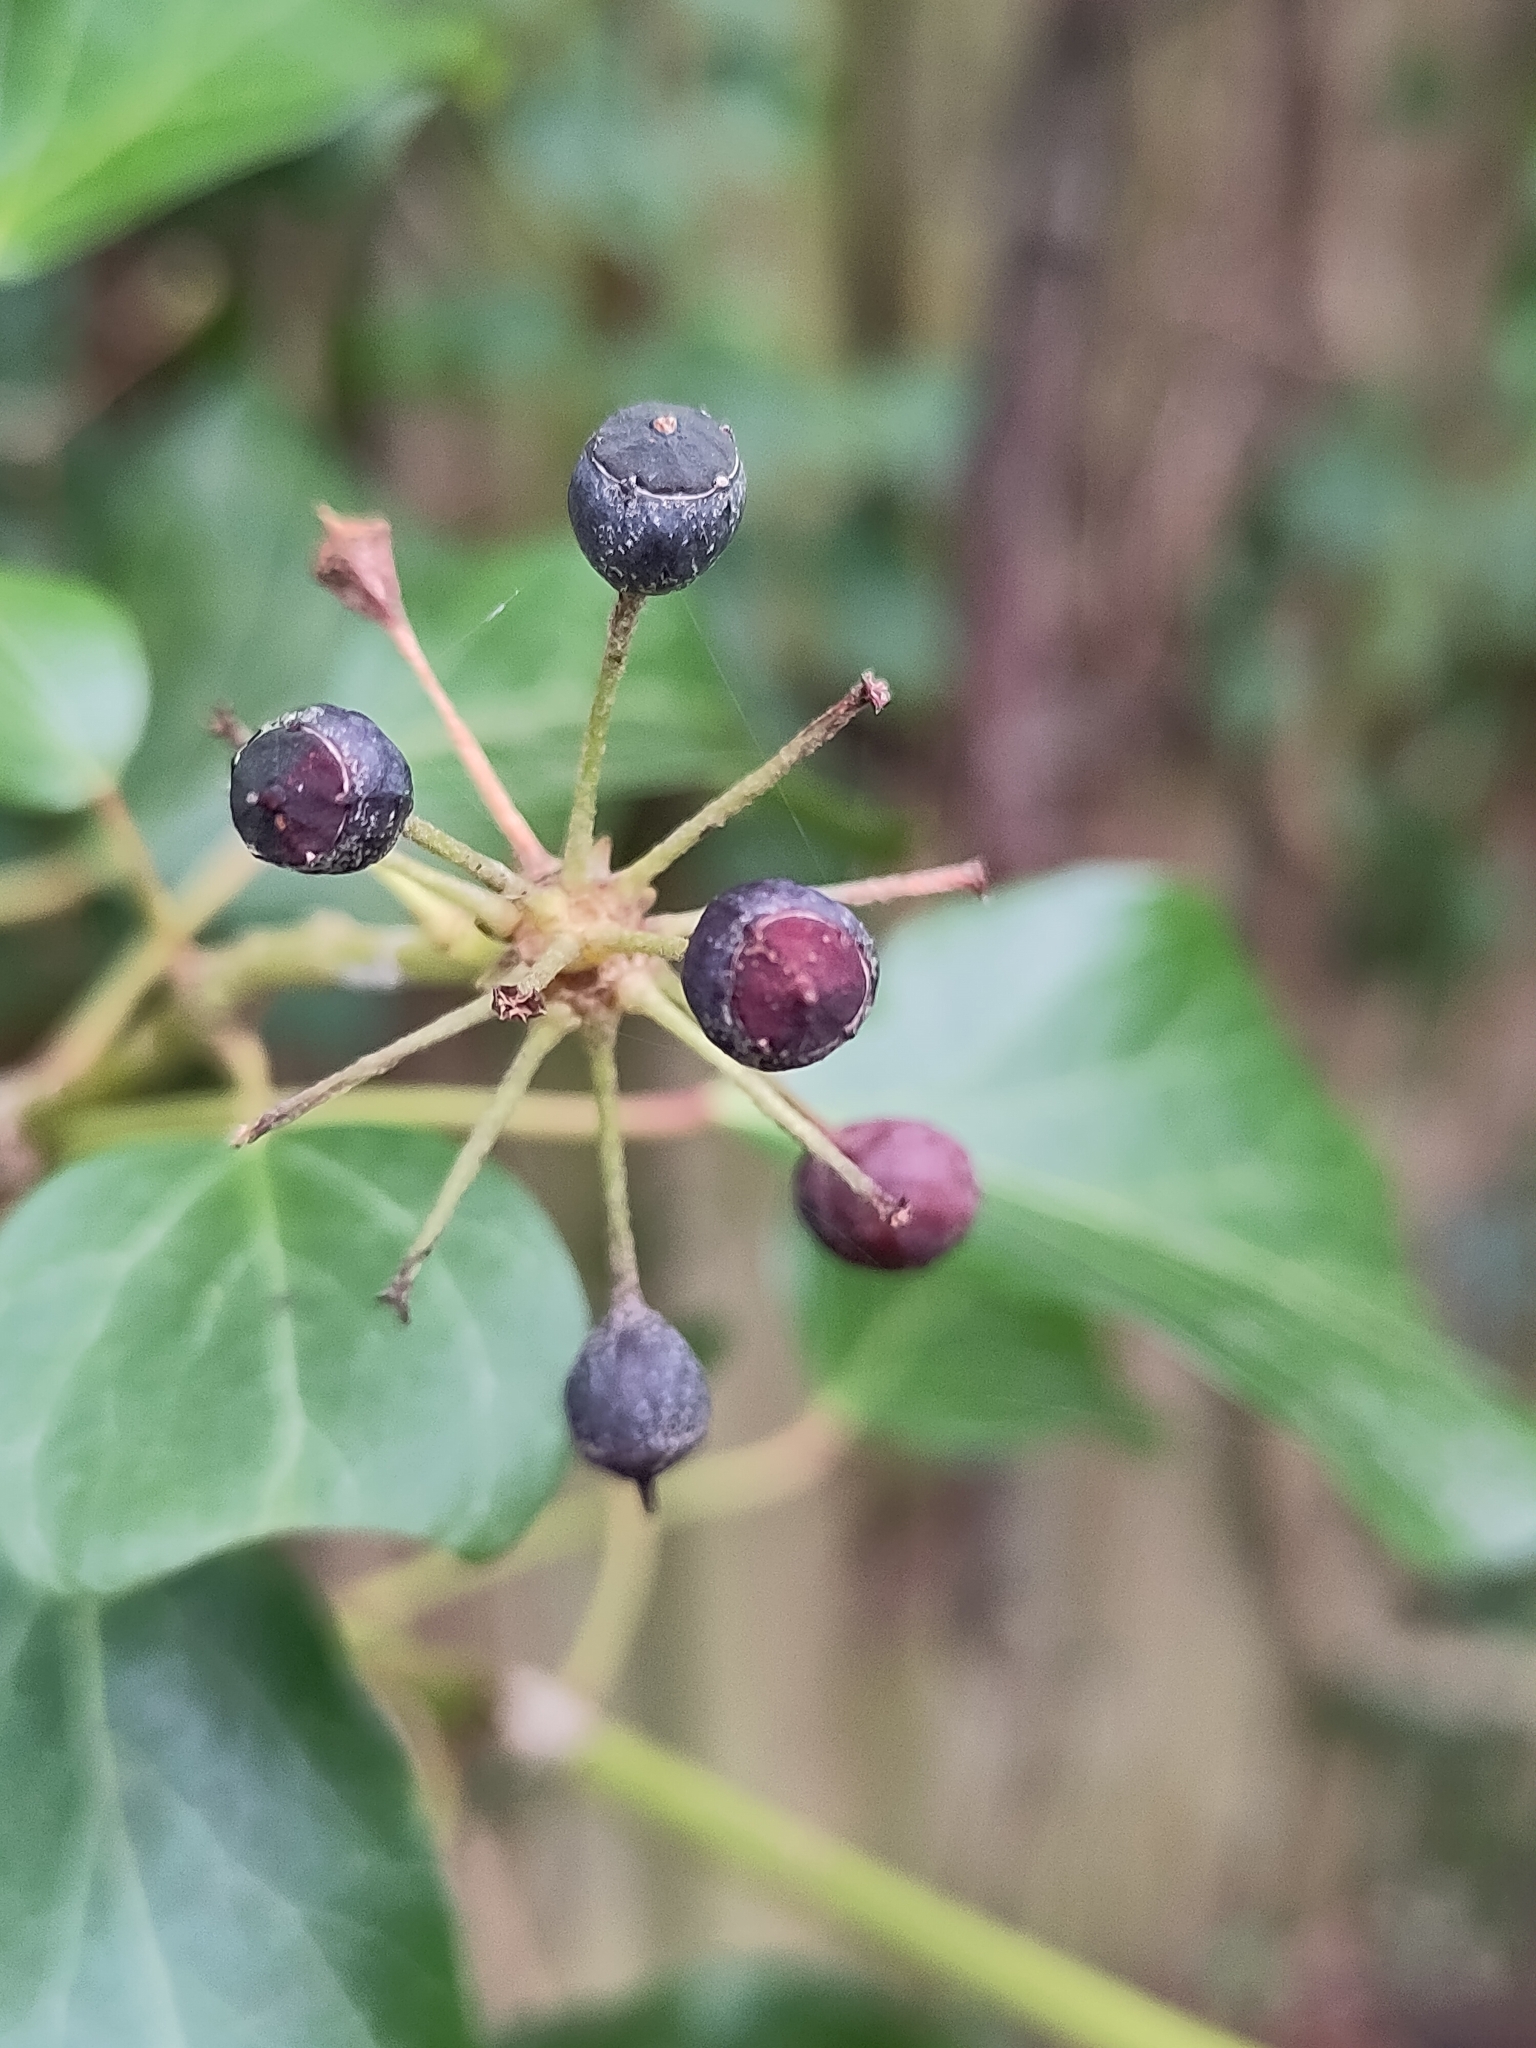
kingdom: Plantae
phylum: Tracheophyta
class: Magnoliopsida
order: Apiales
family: Araliaceae
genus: Hedera
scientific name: Hedera helix
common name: Ivy
